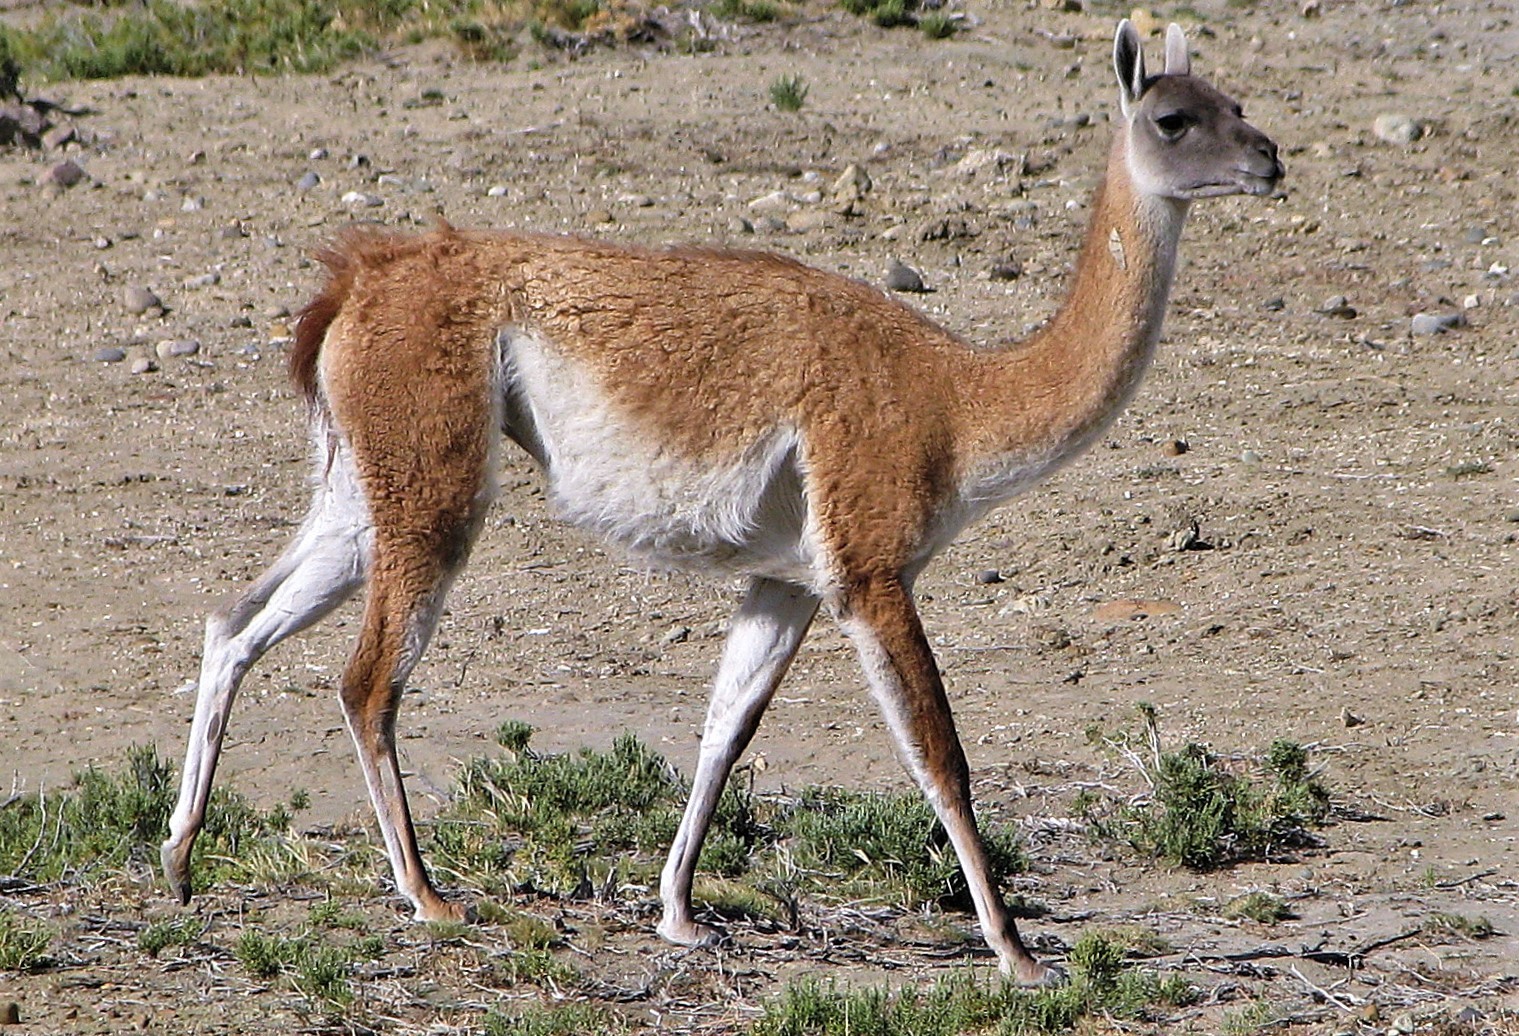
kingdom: Animalia
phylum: Chordata
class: Mammalia
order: Artiodactyla
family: Camelidae
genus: Lama
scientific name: Lama glama
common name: Llama
